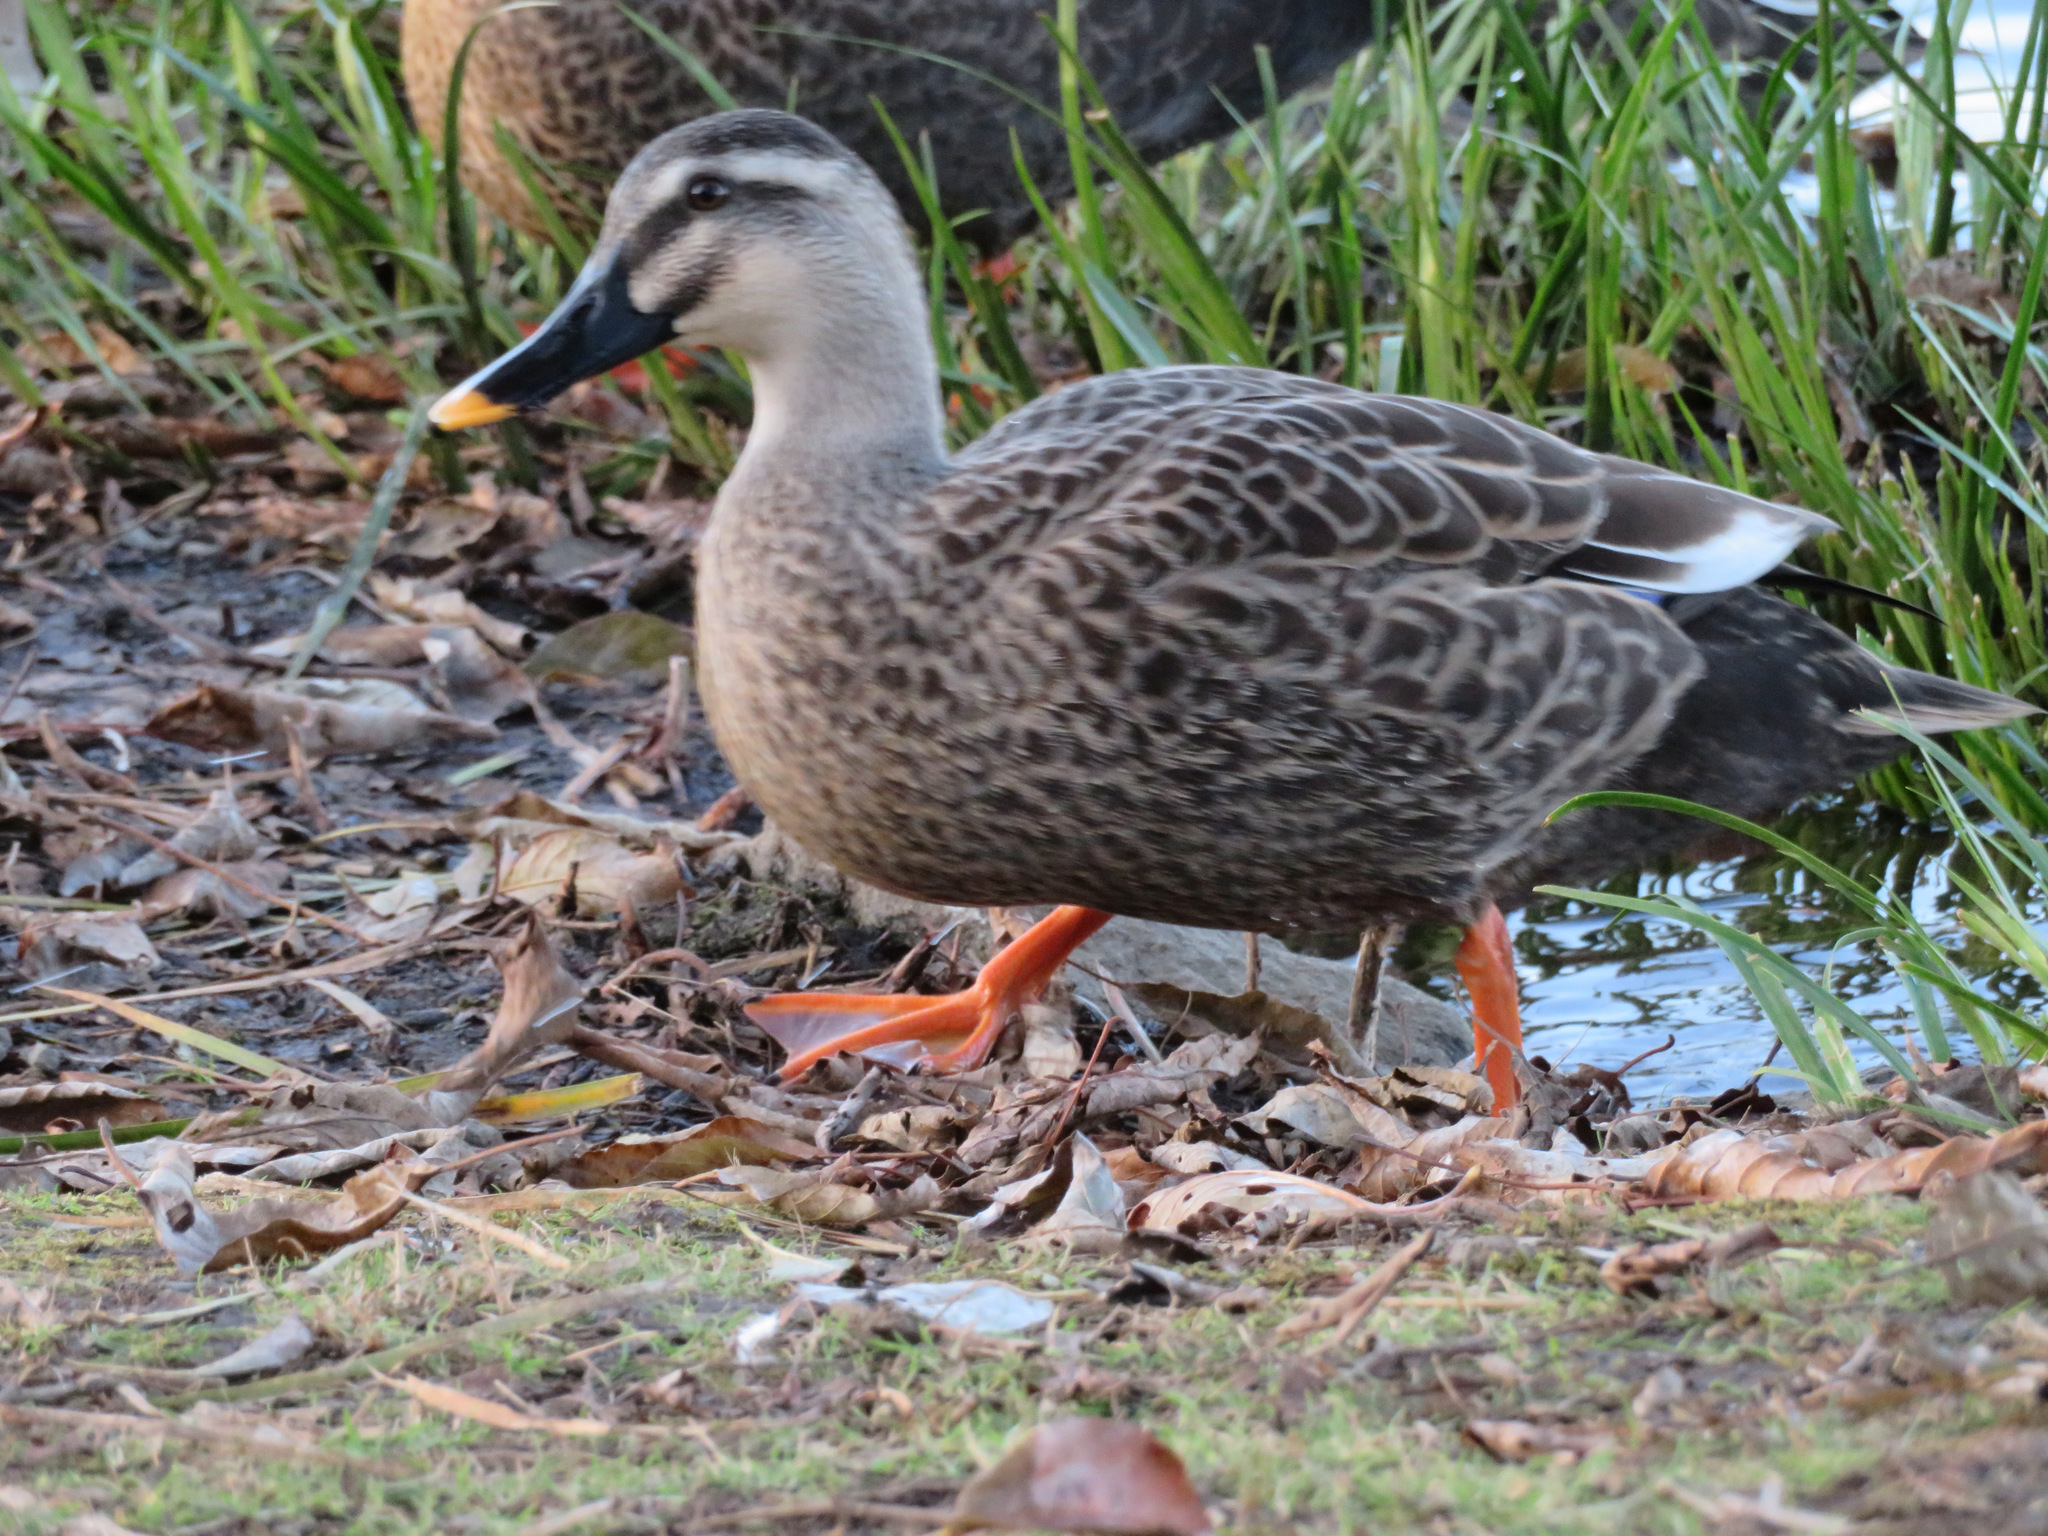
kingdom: Animalia
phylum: Chordata
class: Aves
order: Anseriformes
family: Anatidae
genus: Anas
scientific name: Anas zonorhyncha
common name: Eastern spot-billed duck
